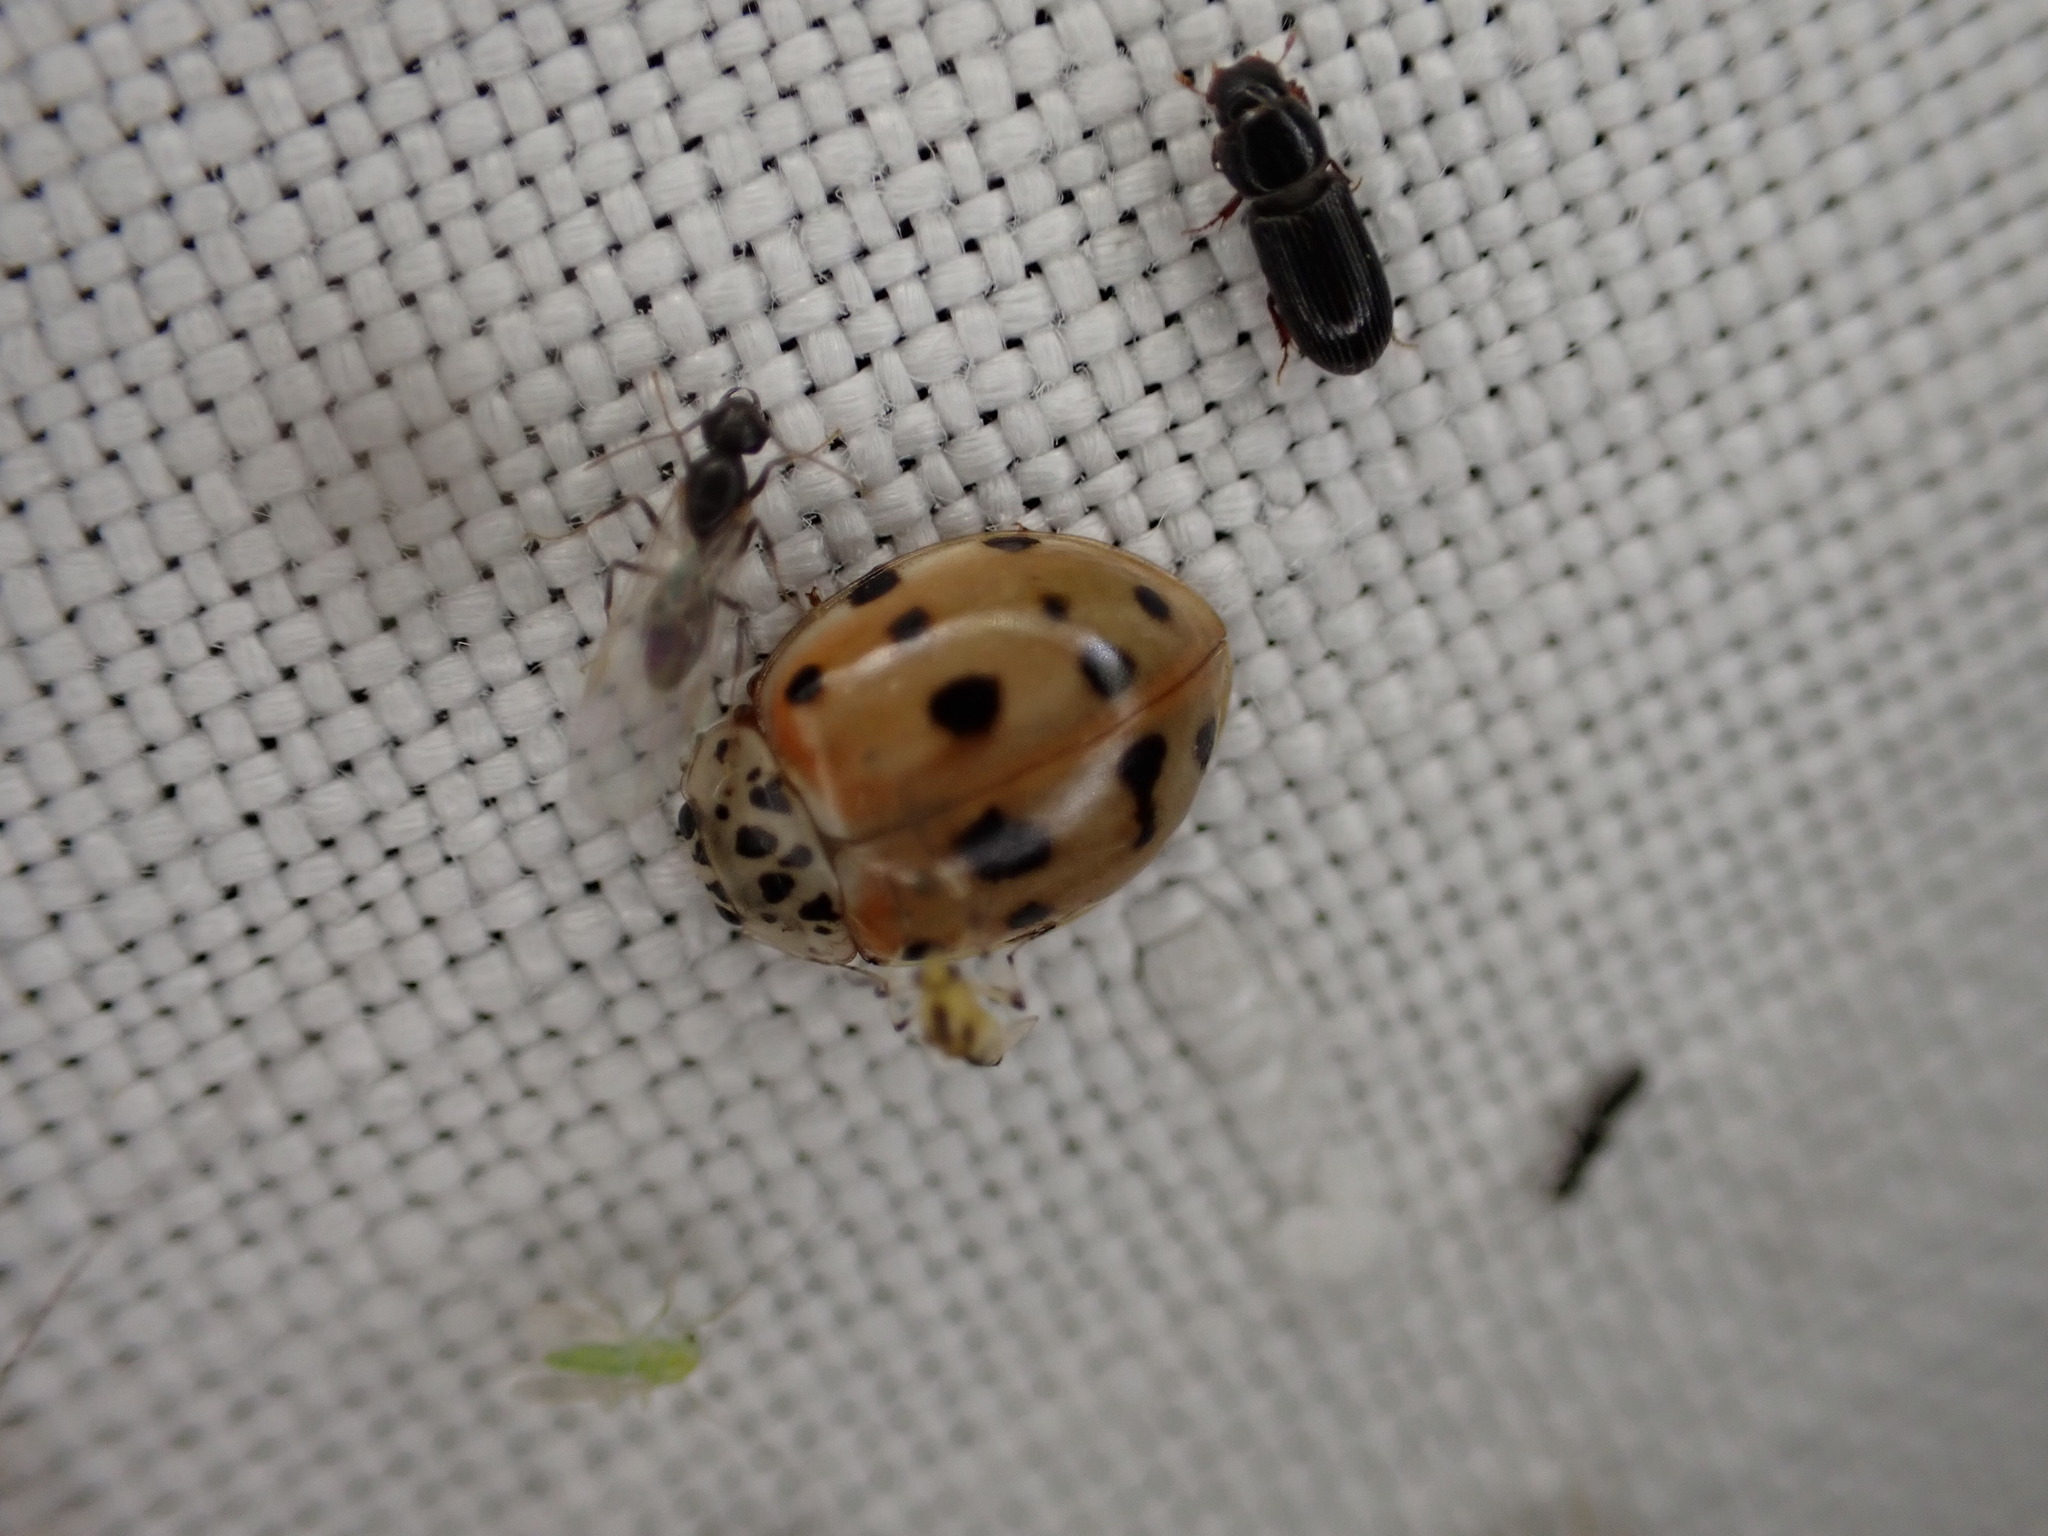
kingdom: Animalia
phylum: Arthropoda
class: Insecta
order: Coleoptera
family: Coccinellidae
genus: Harmonia
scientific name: Harmonia quadripunctata
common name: Cream-streaked ladybird
